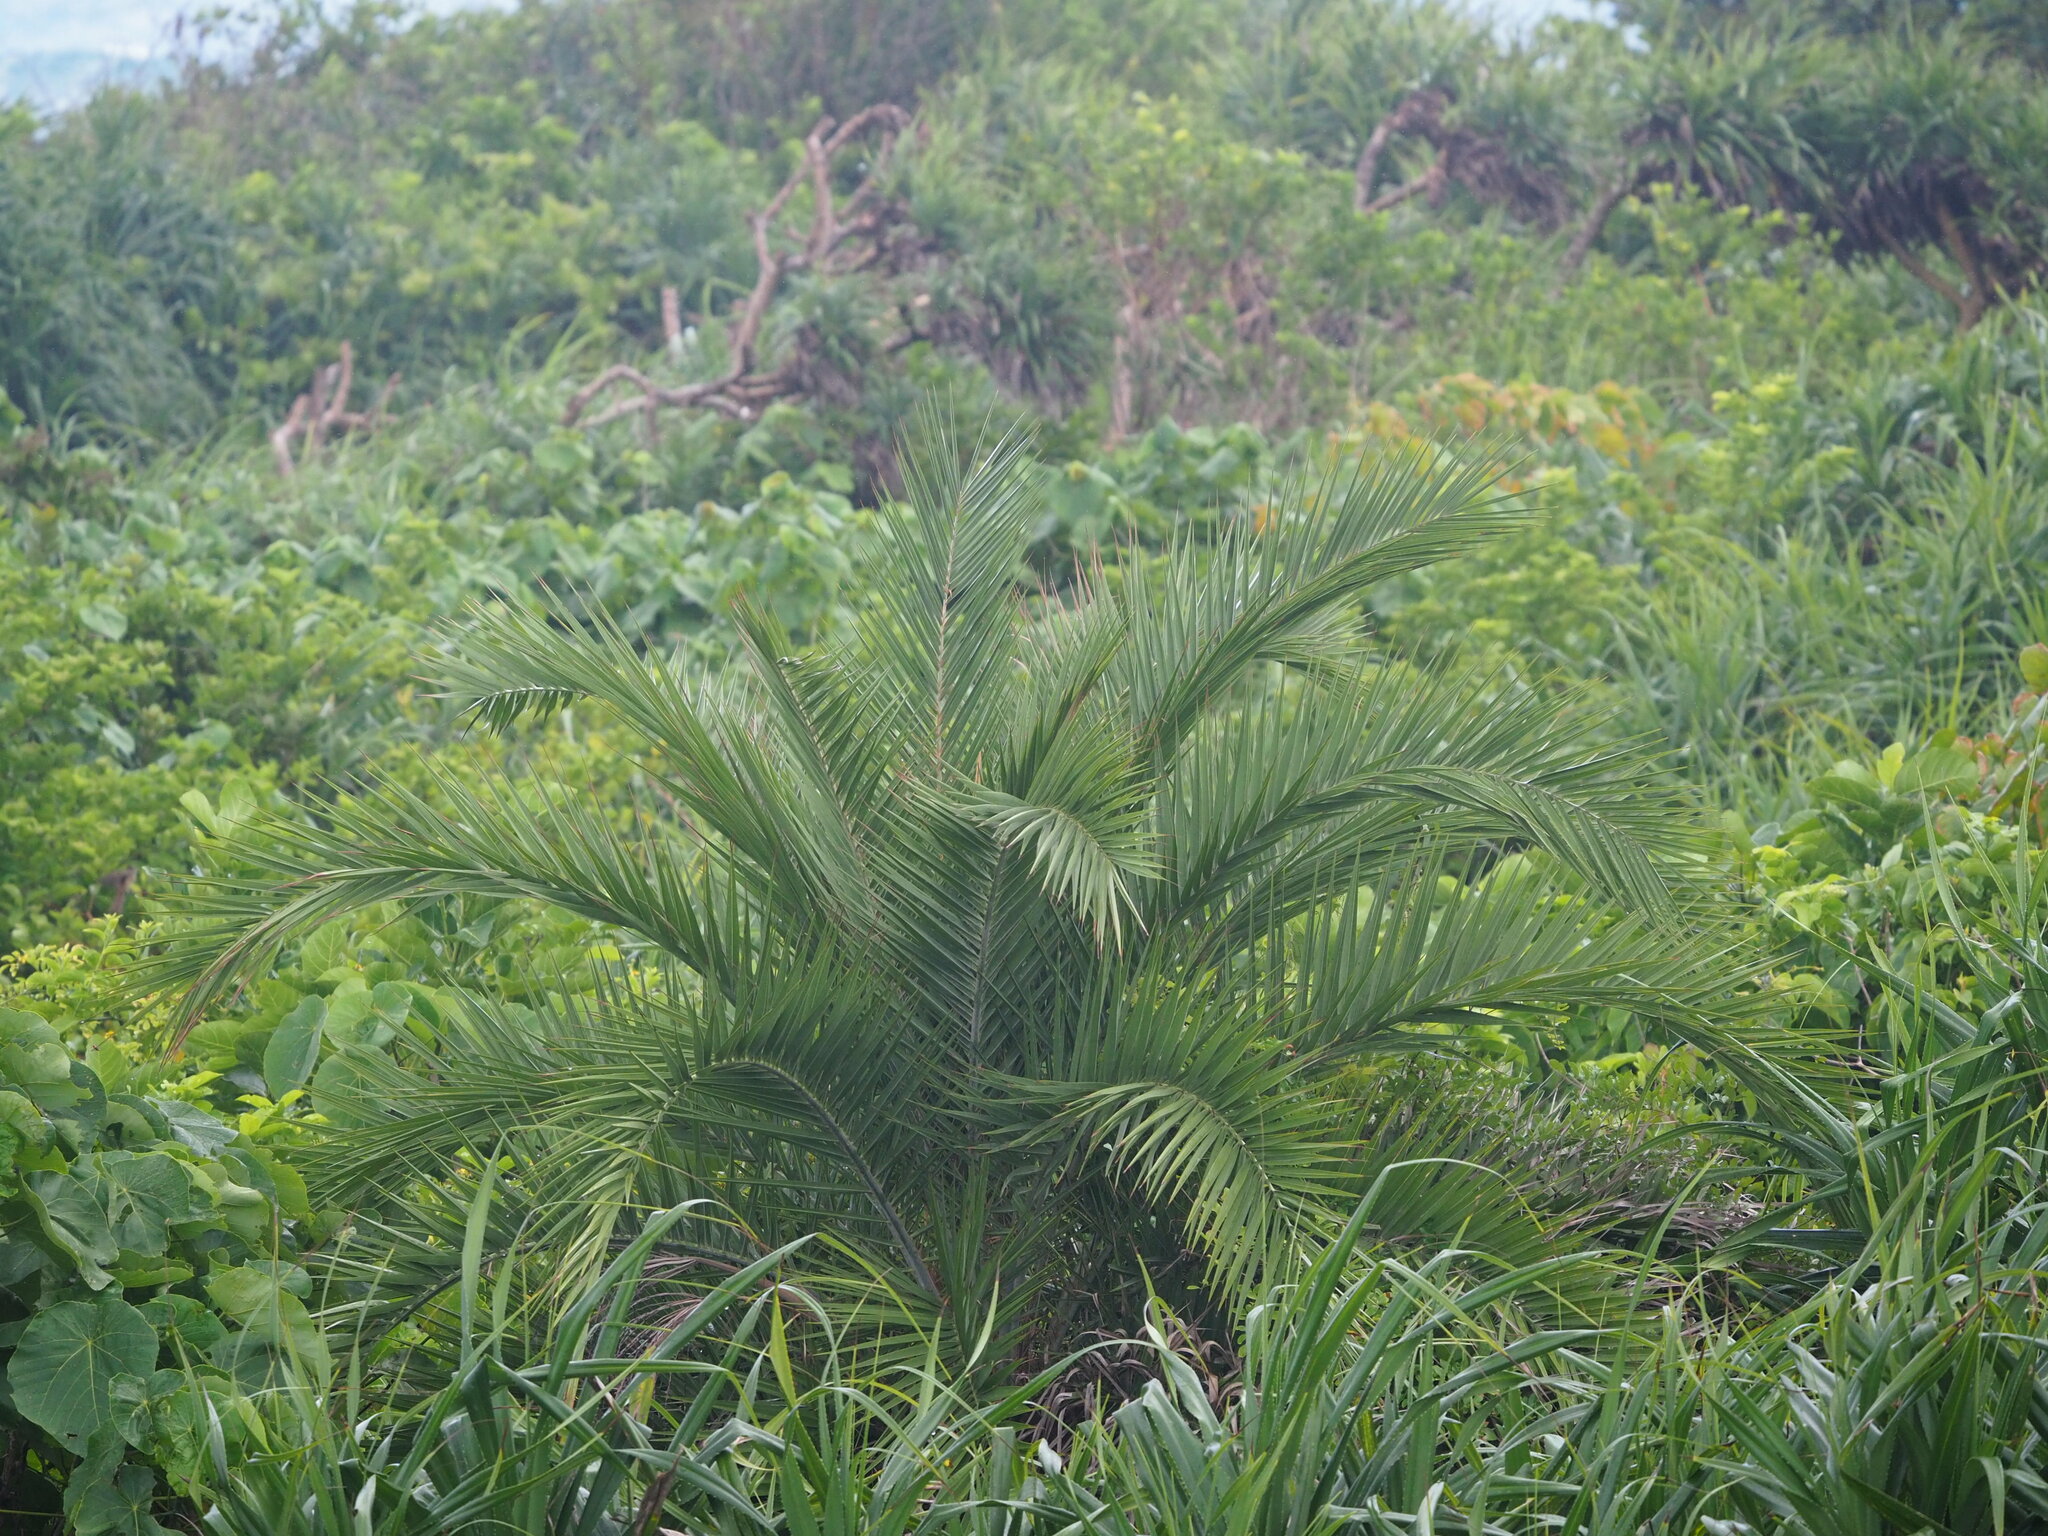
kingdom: Plantae
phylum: Tracheophyta
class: Liliopsida
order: Arecales
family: Arecaceae
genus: Phoenix
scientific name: Phoenix loureiroi
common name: Loureiro's palm
